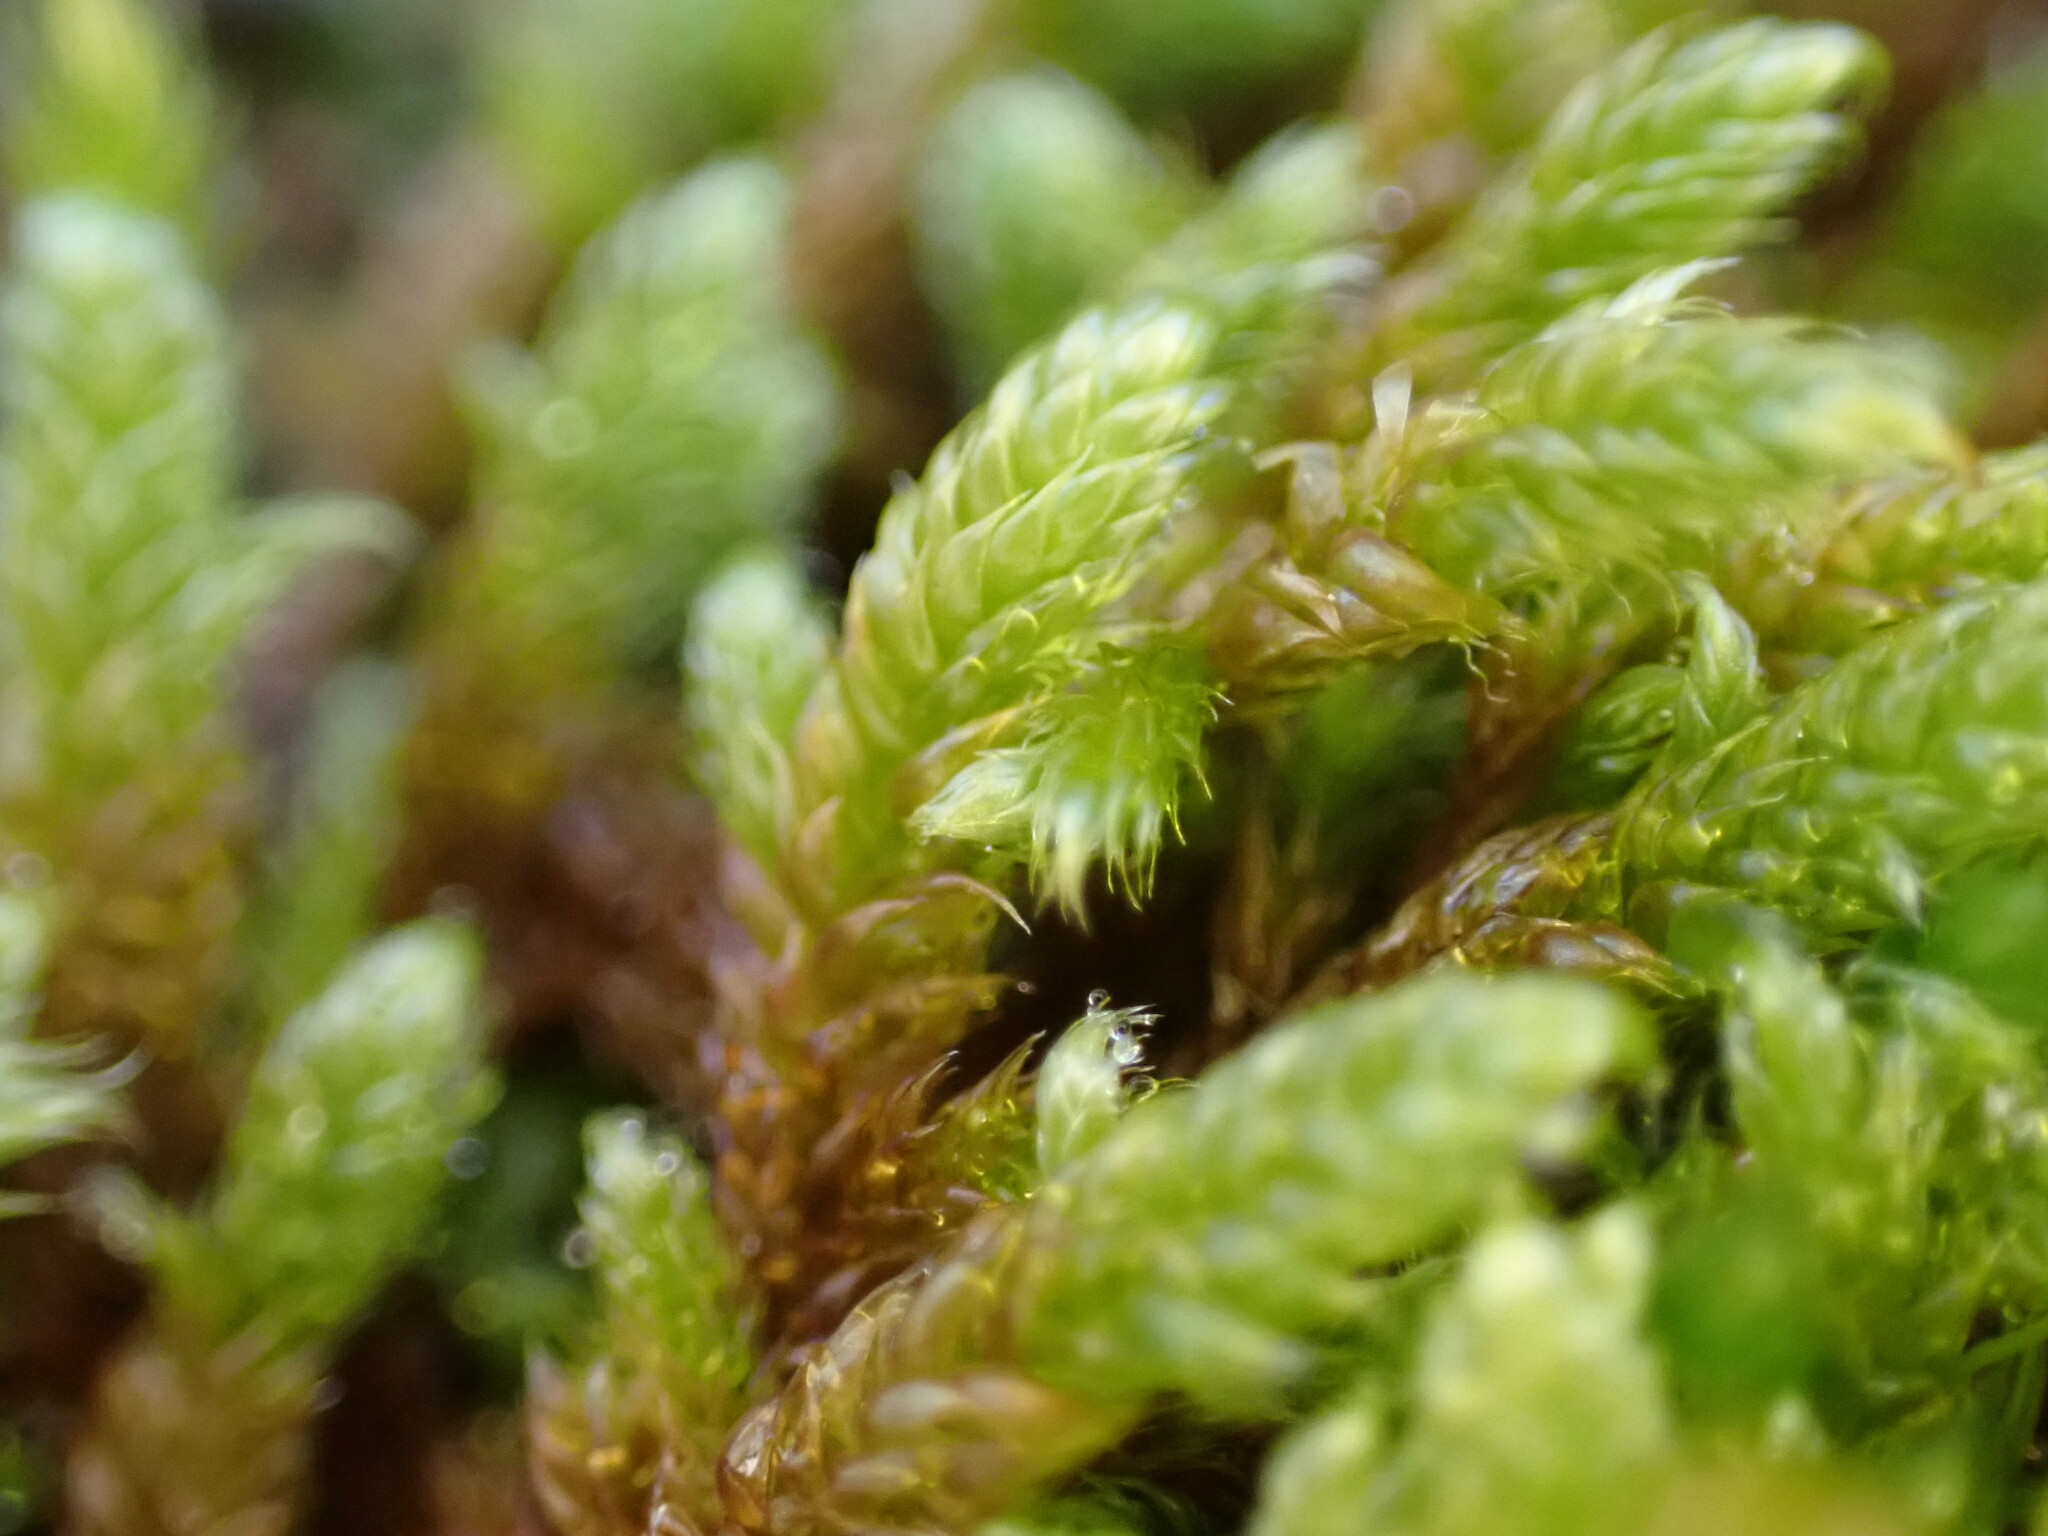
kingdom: Plantae
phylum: Bryophyta
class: Bryopsida
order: Hypnales
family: Hypnaceae
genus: Hypnum
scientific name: Hypnum cupressiforme
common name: Cypress-leaved plait-moss
